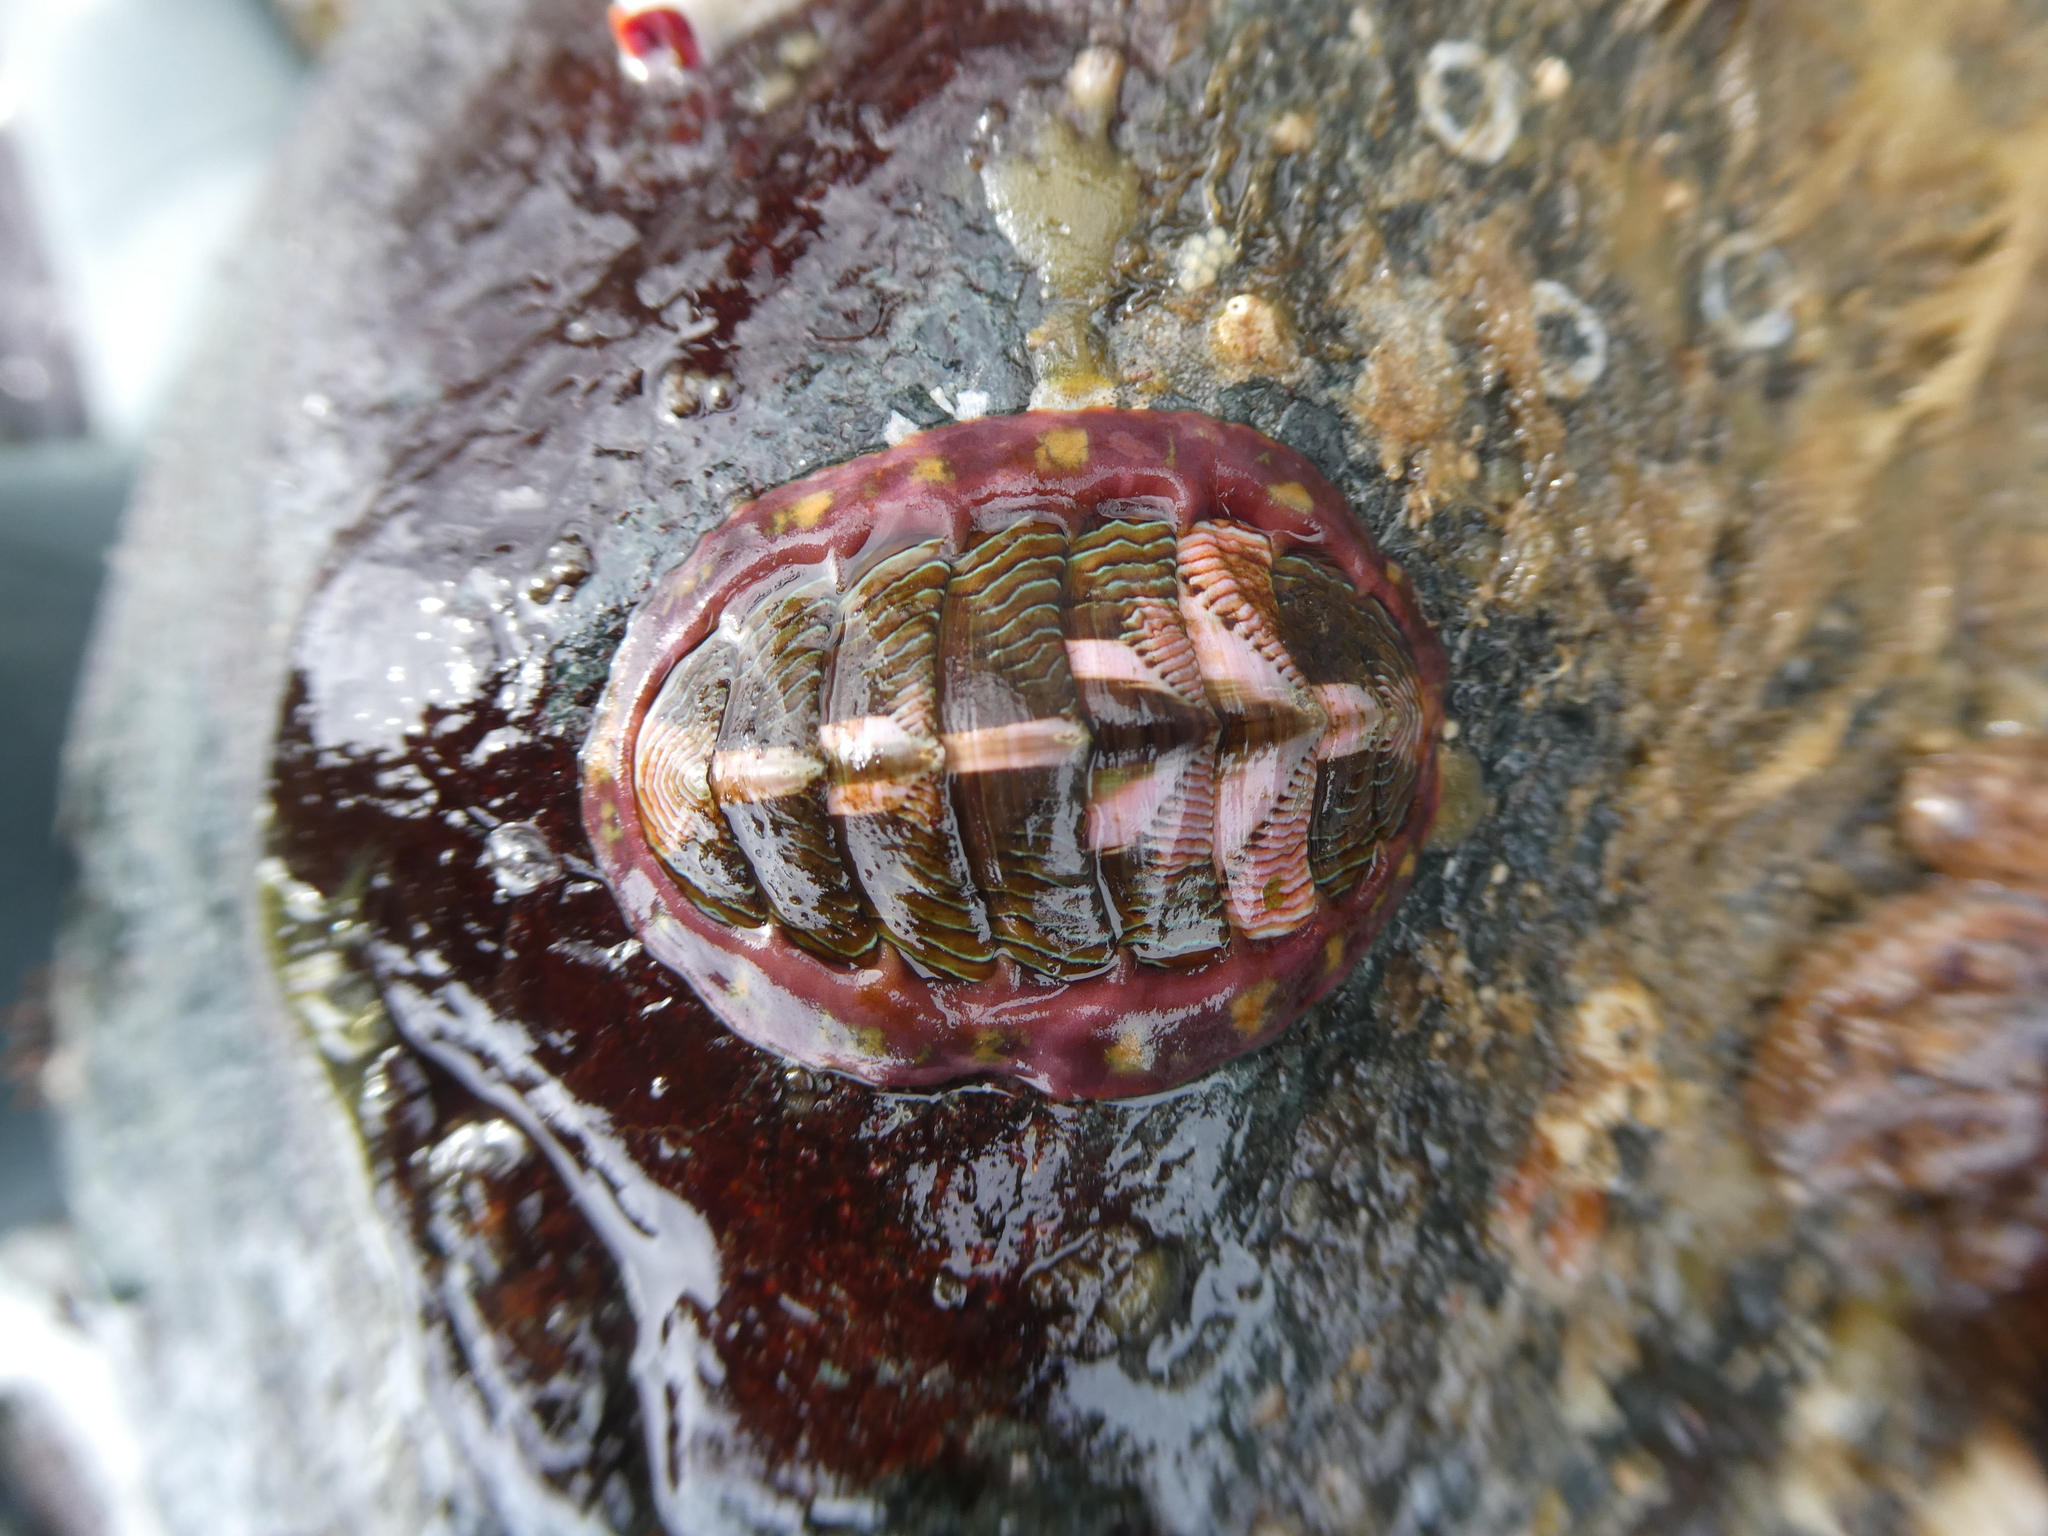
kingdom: Animalia
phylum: Mollusca
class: Polyplacophora
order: Chitonida
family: Tonicellidae
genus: Tonicella
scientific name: Tonicella lineata
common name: Lined chiton
